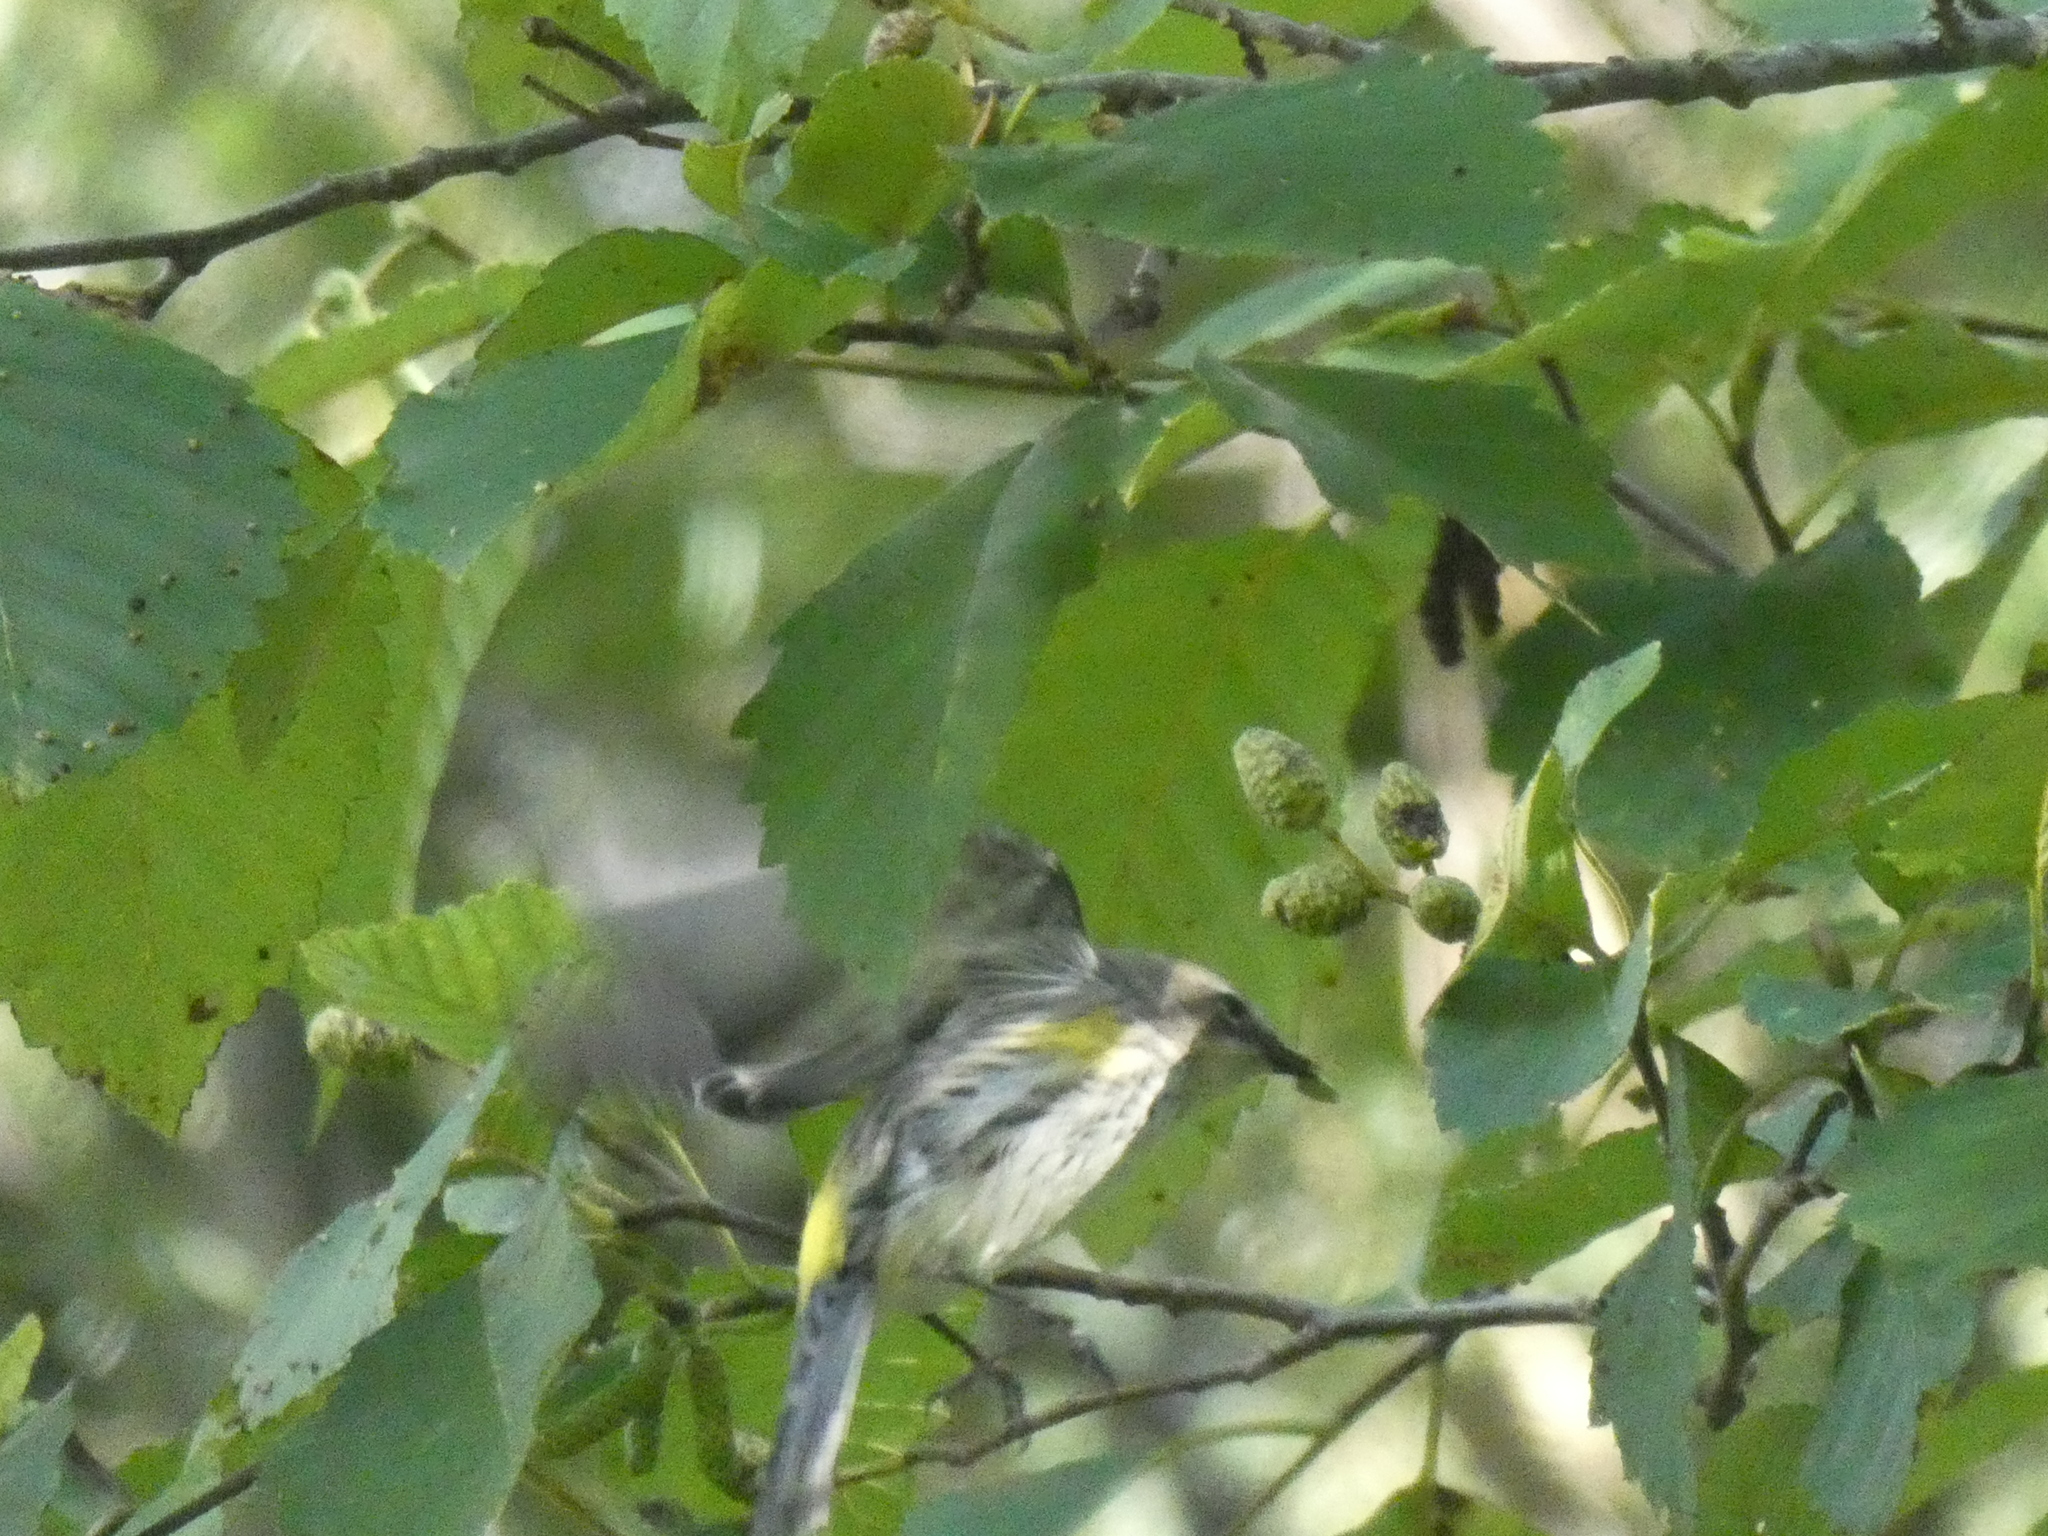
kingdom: Animalia
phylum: Chordata
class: Aves
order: Passeriformes
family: Parulidae
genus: Setophaga
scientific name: Setophaga coronata
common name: Myrtle warbler
